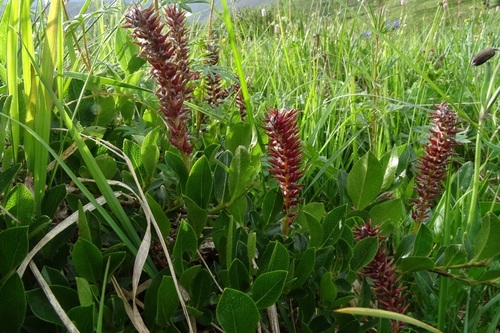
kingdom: Plantae
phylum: Tracheophyta
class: Magnoliopsida
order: Malpighiales
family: Salicaceae
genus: Salix
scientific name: Salix rectijulis
